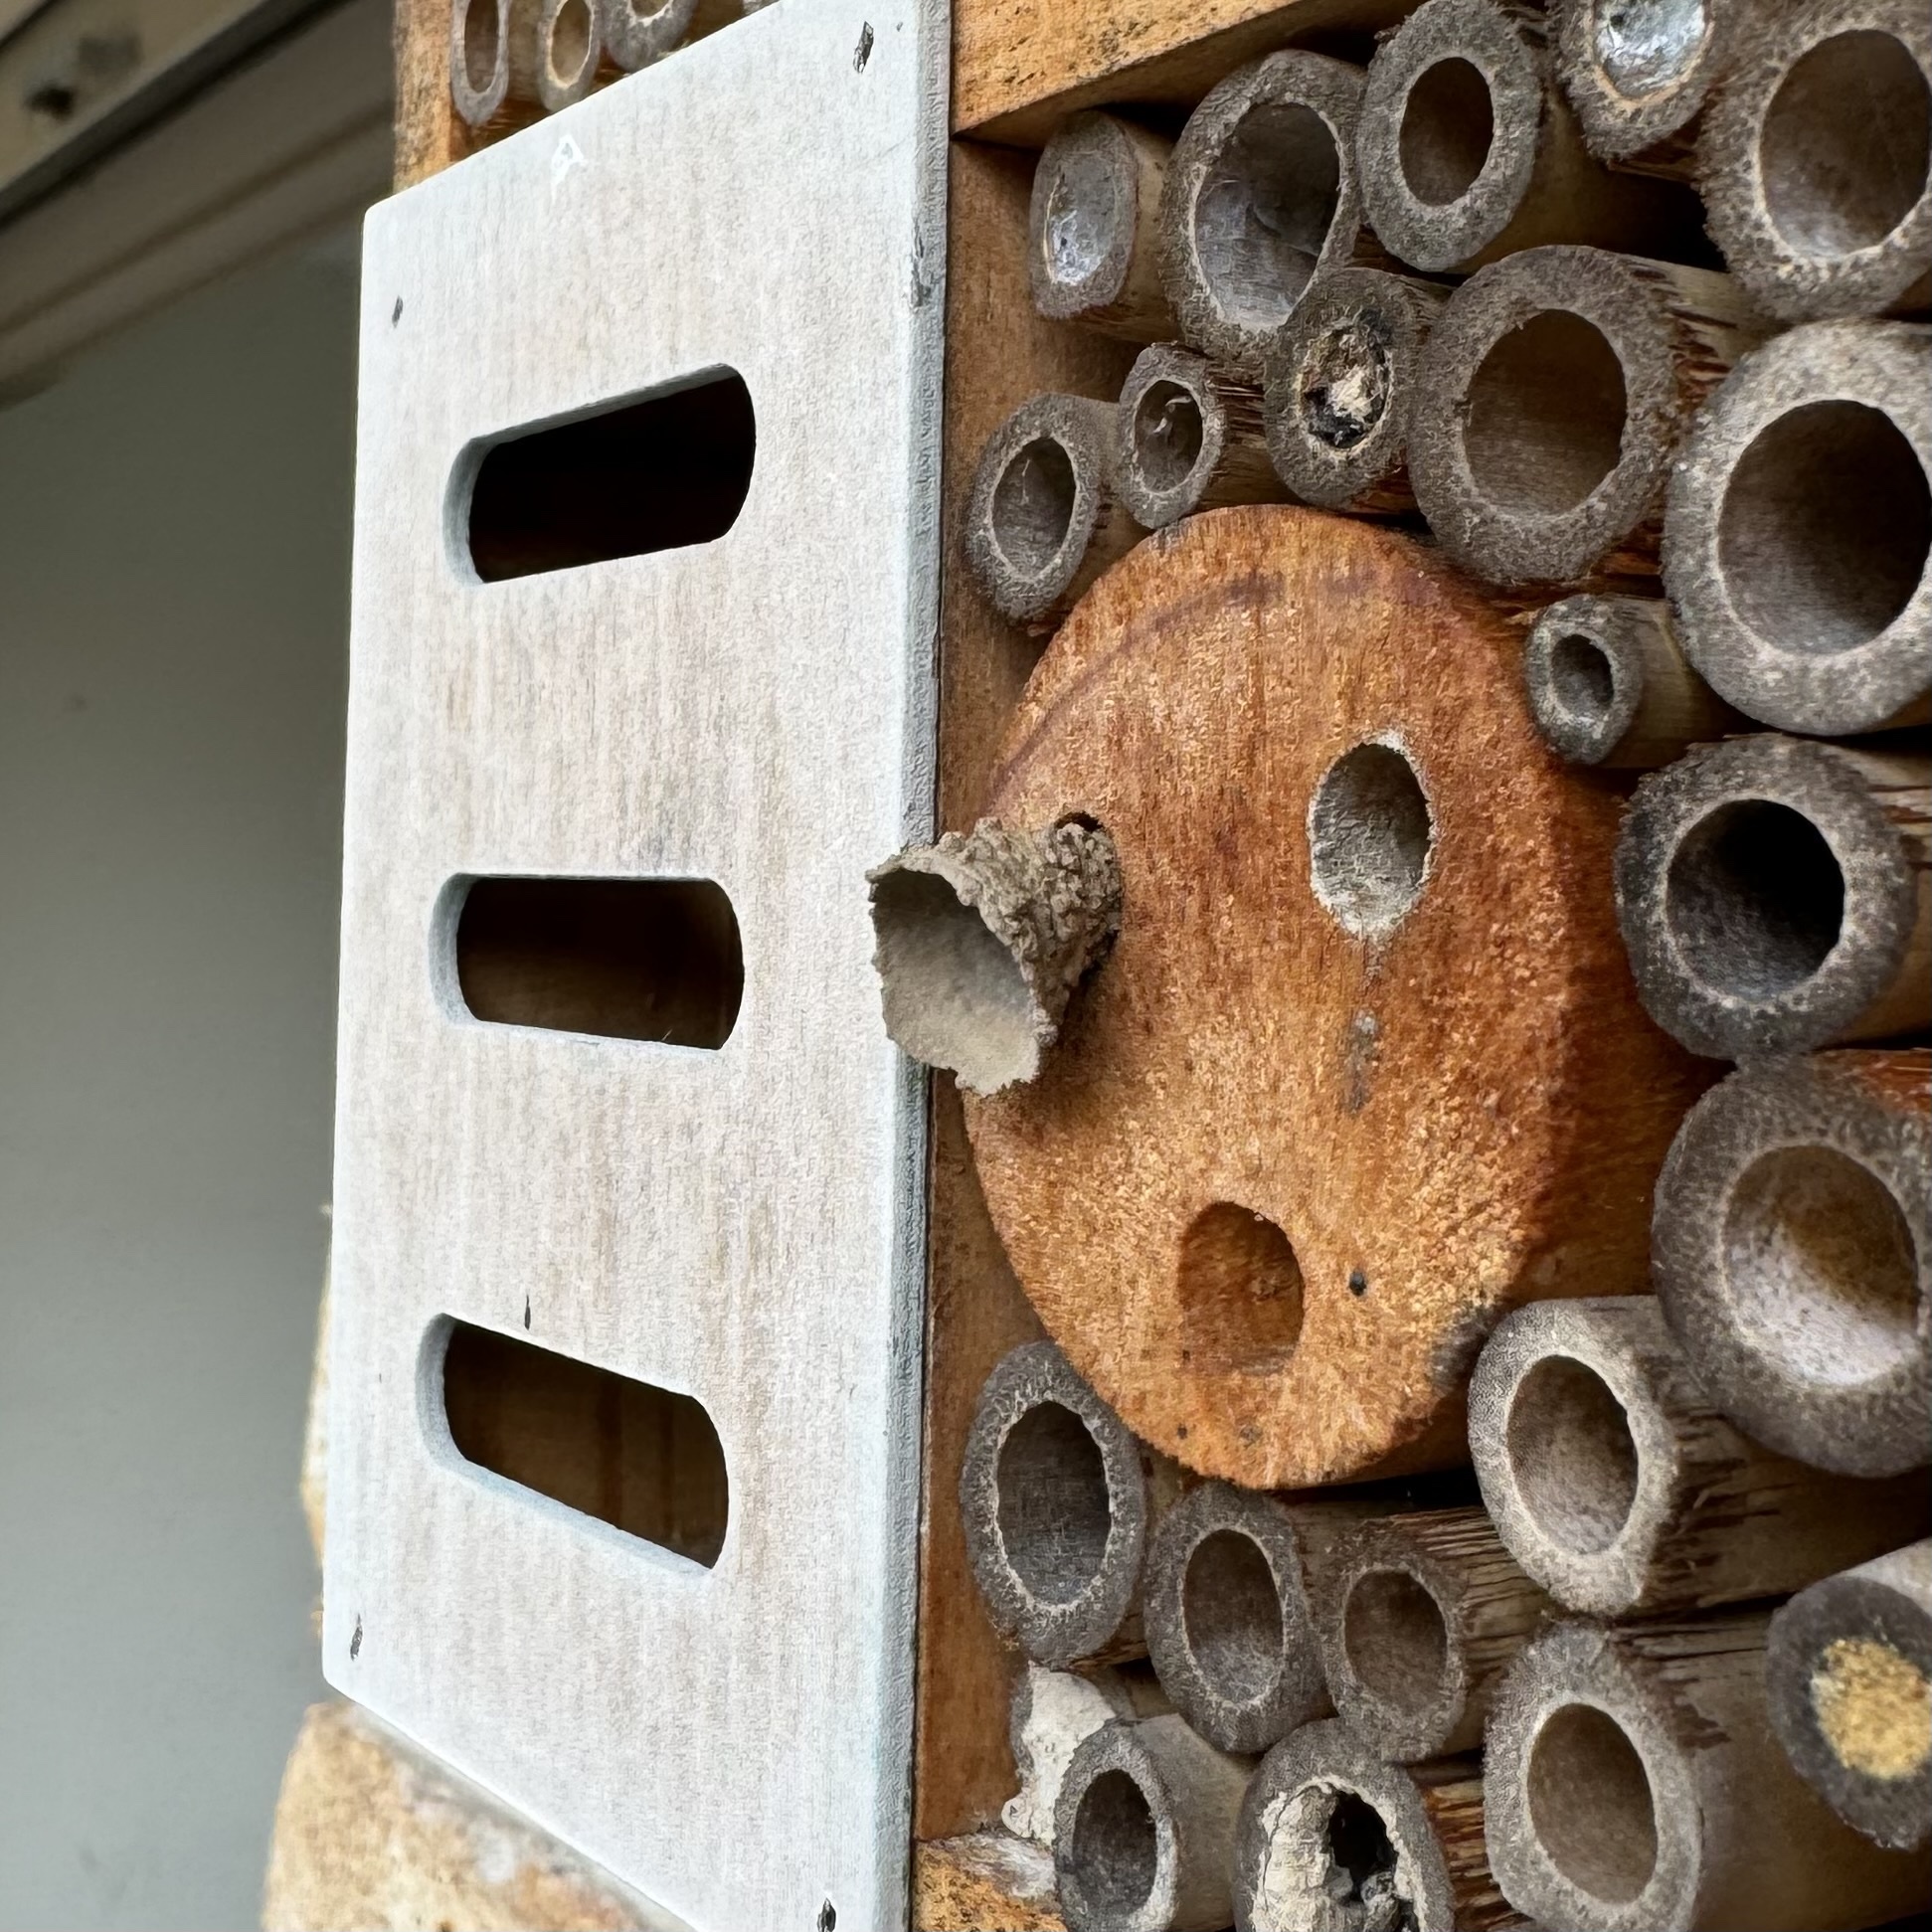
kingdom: Animalia
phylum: Arthropoda
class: Insecta
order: Hymenoptera
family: Eumenidae
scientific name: Eumenidae
